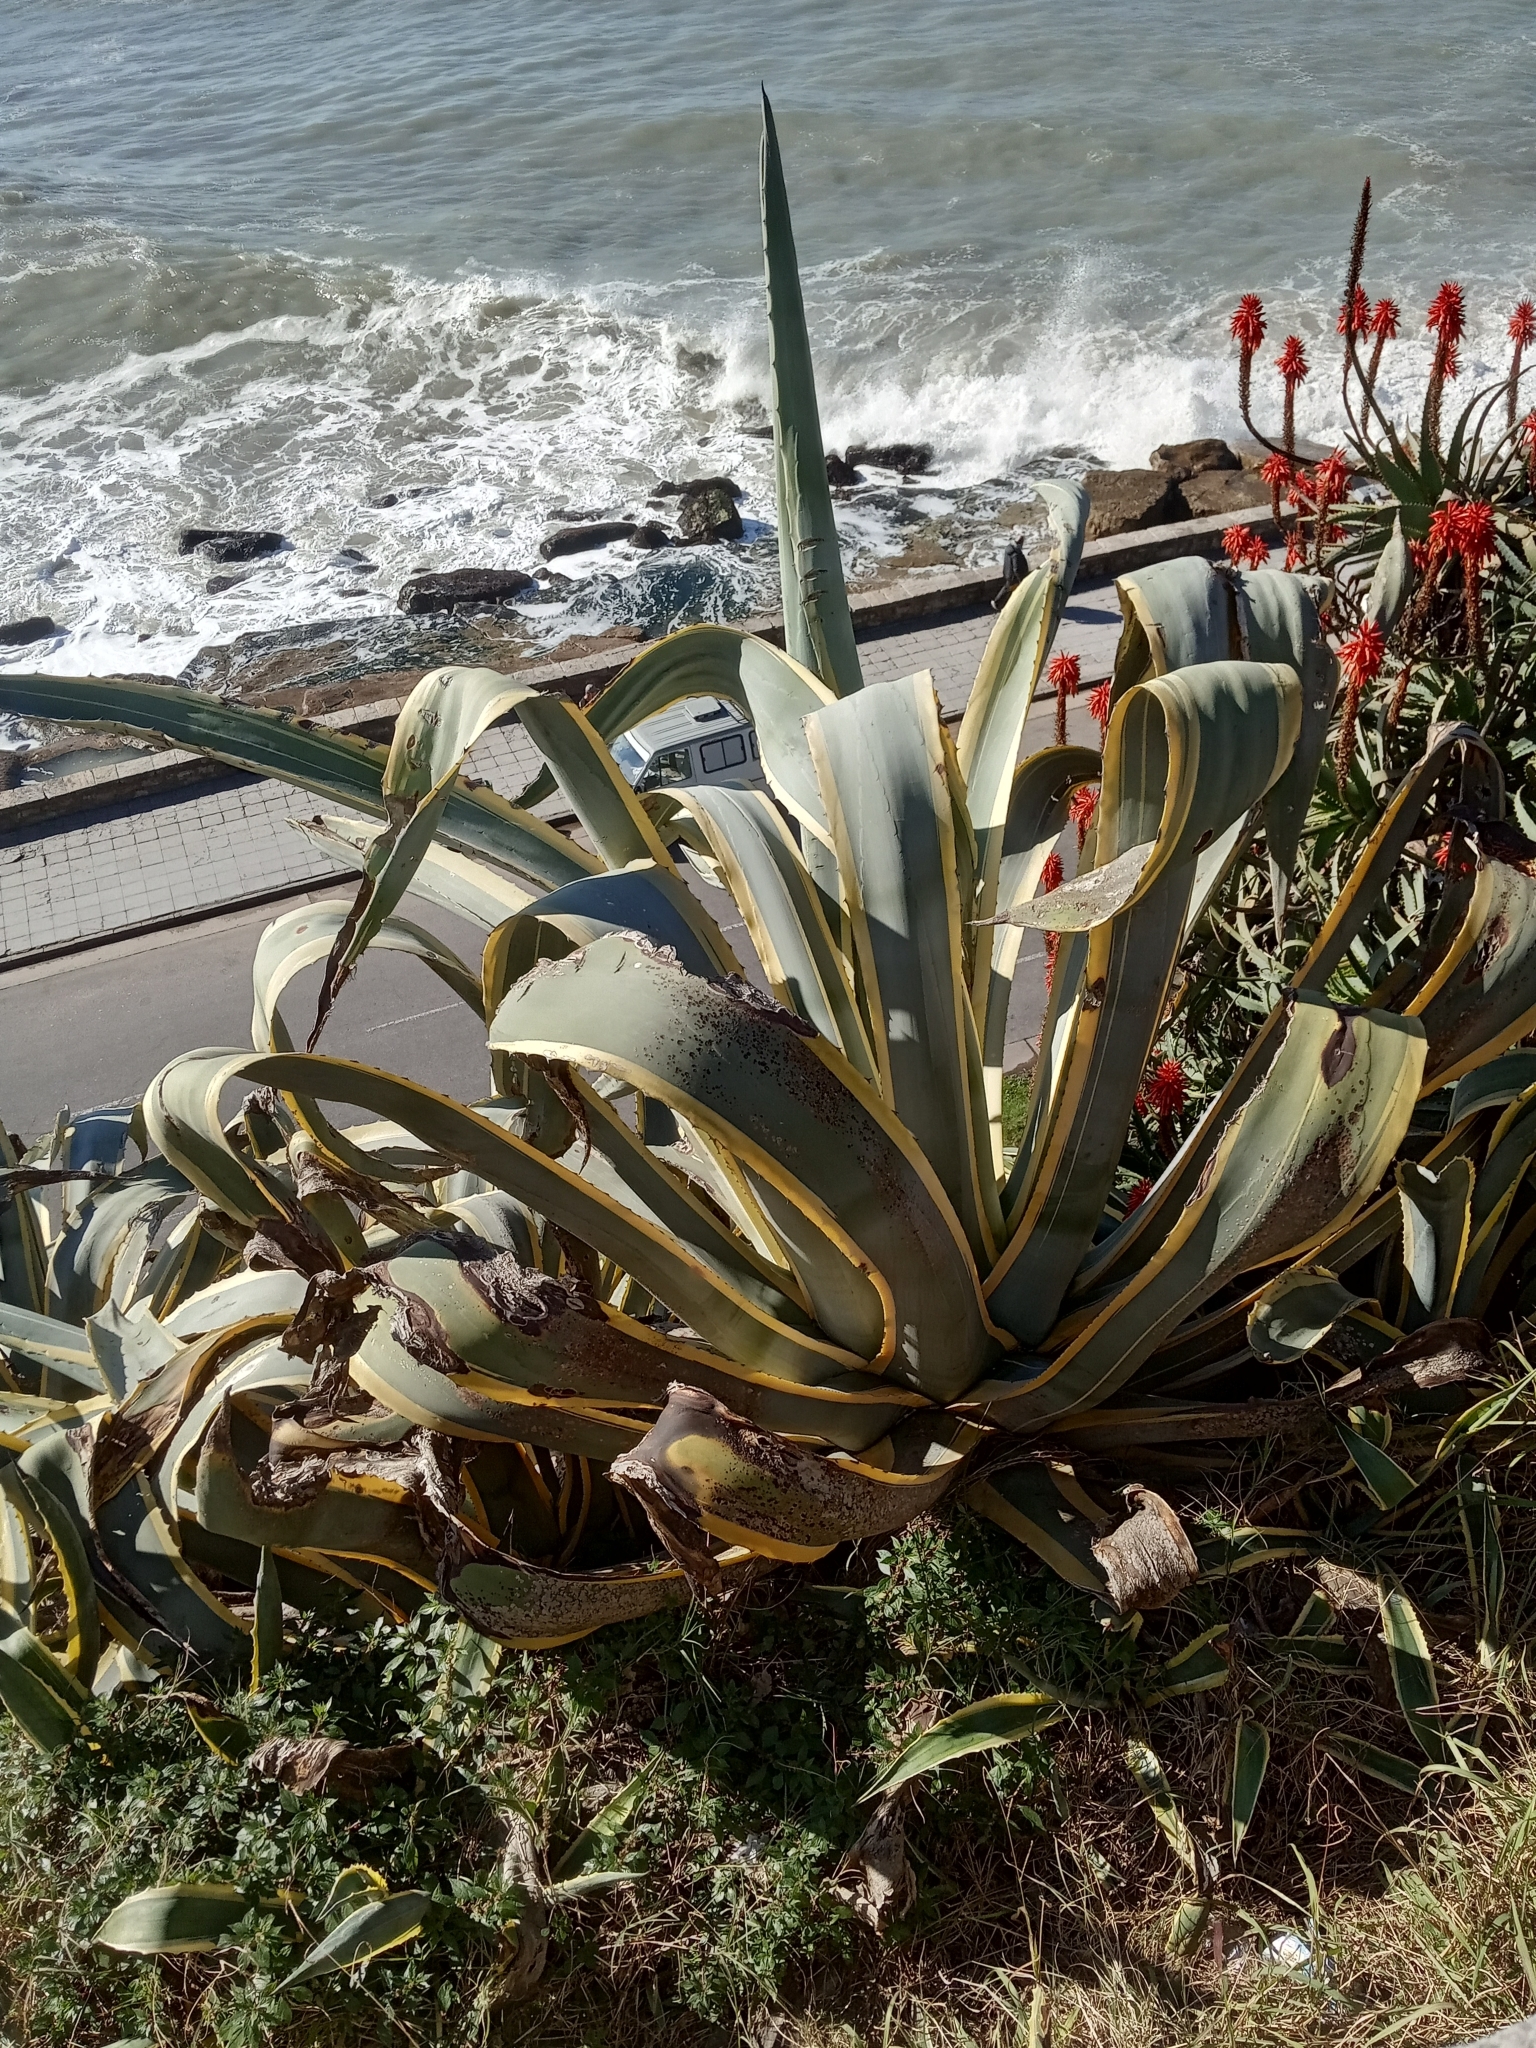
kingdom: Plantae
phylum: Tracheophyta
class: Liliopsida
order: Asparagales
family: Asparagaceae
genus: Agave
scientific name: Agave americana
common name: Centuryplant
